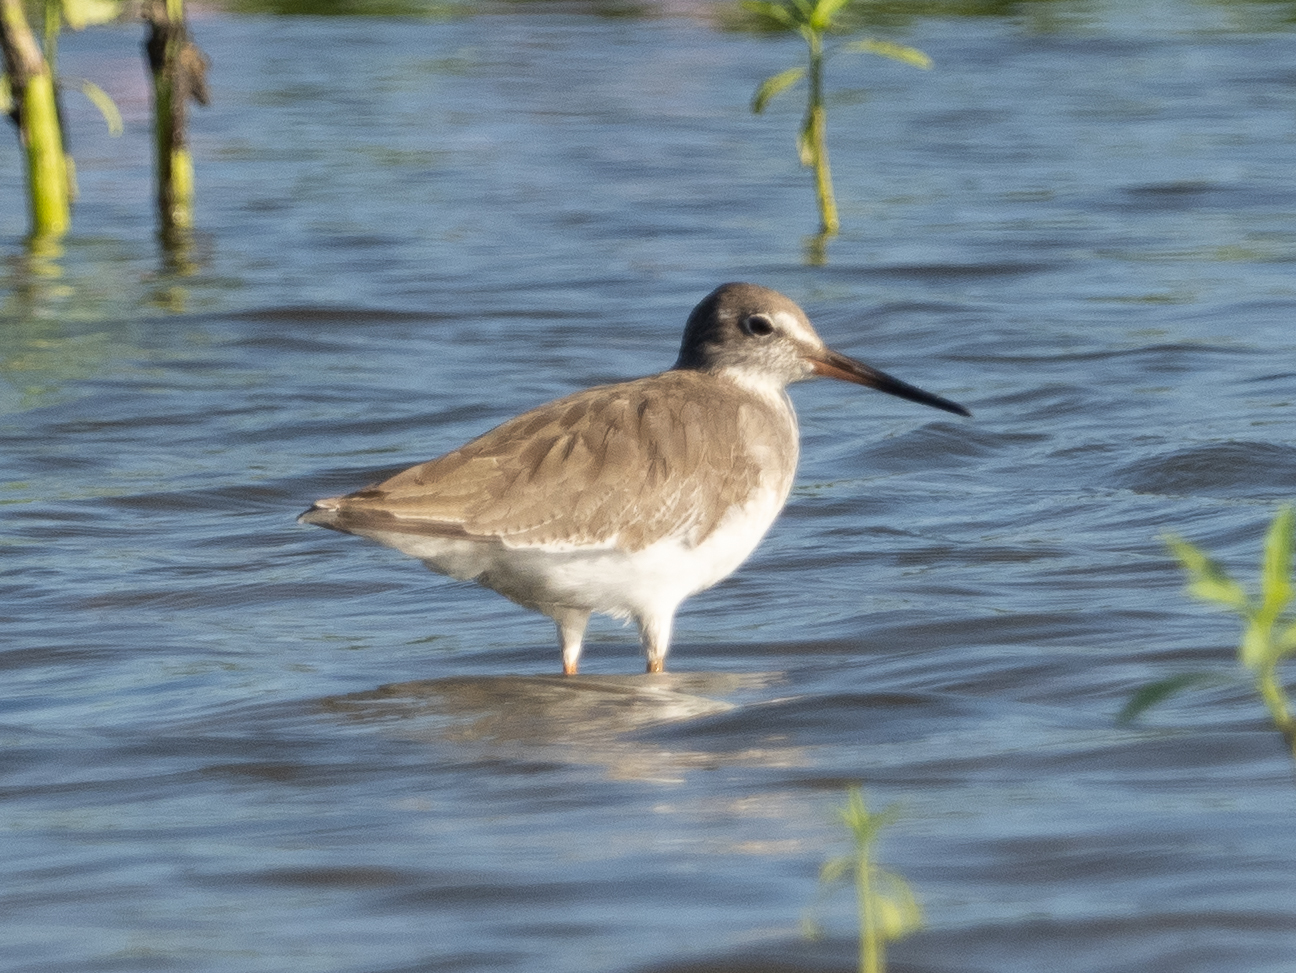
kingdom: Animalia
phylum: Chordata
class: Aves
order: Charadriiformes
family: Scolopacidae
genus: Tringa
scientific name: Tringa totanus
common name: Common redshank
